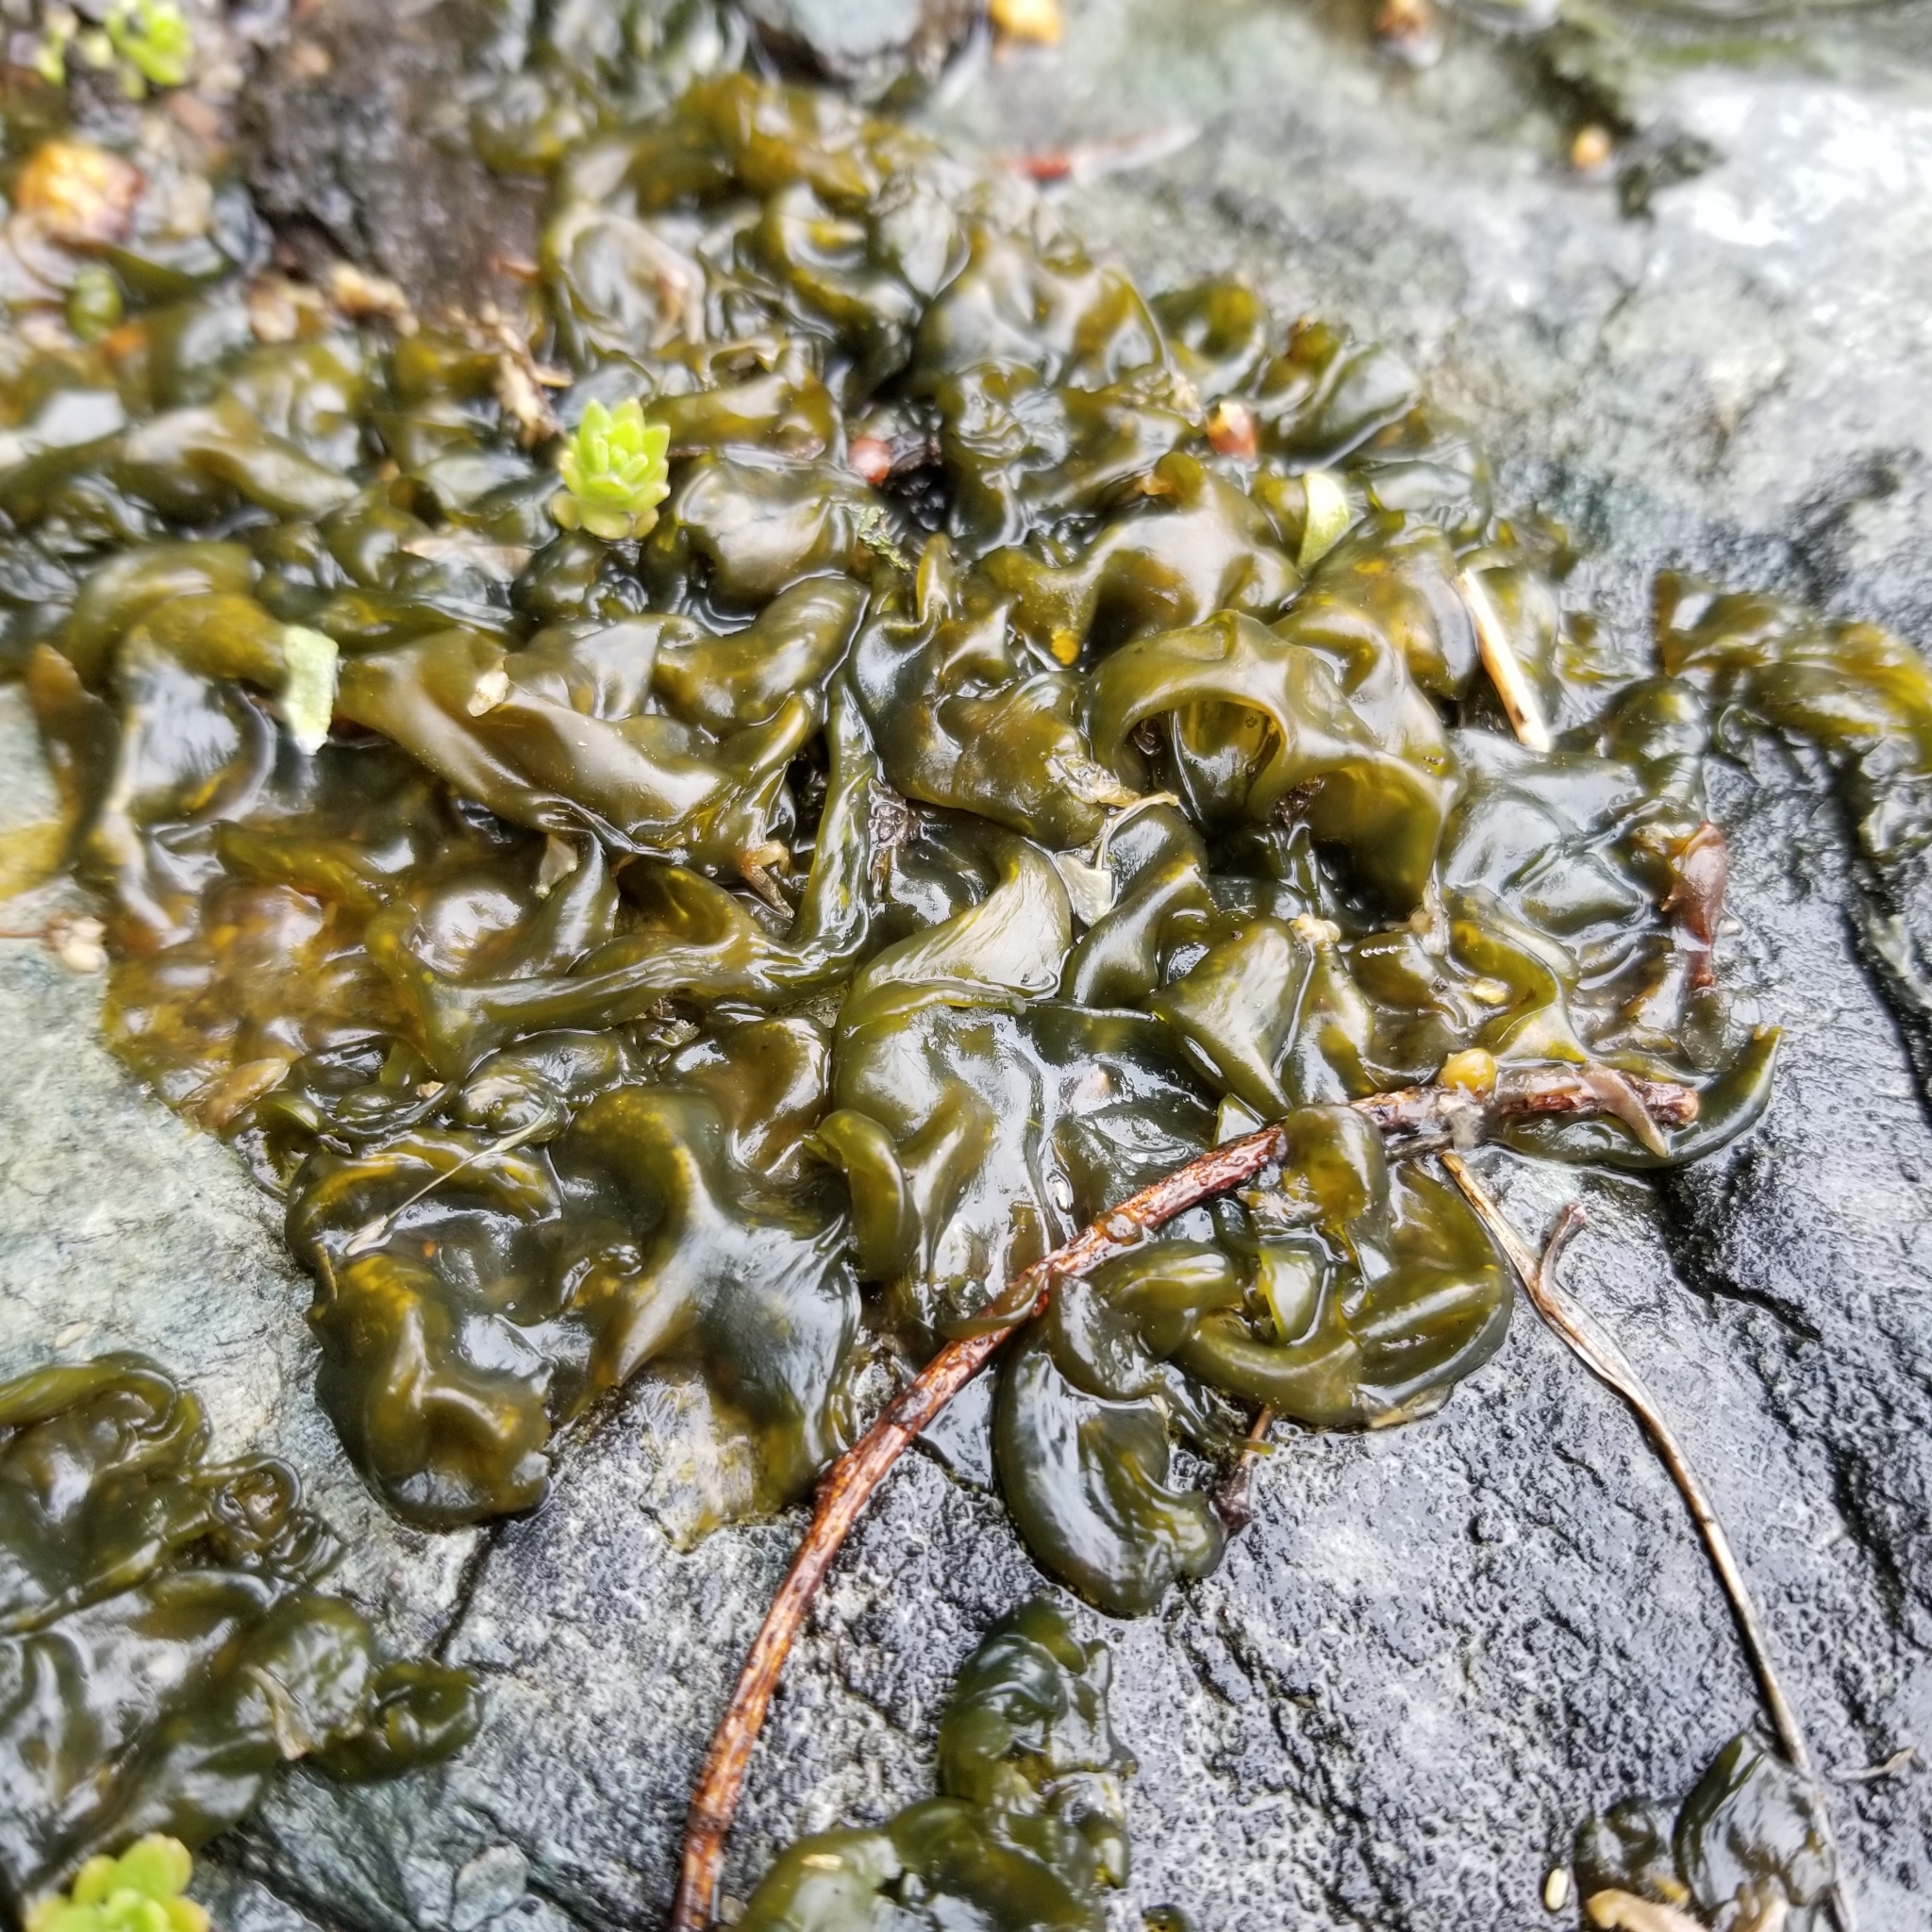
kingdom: Bacteria
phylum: Cyanobacteria
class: Cyanobacteriia
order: Cyanobacteriales
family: Nostocaceae
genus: Nostoc
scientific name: Nostoc commune
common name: Star jelly
